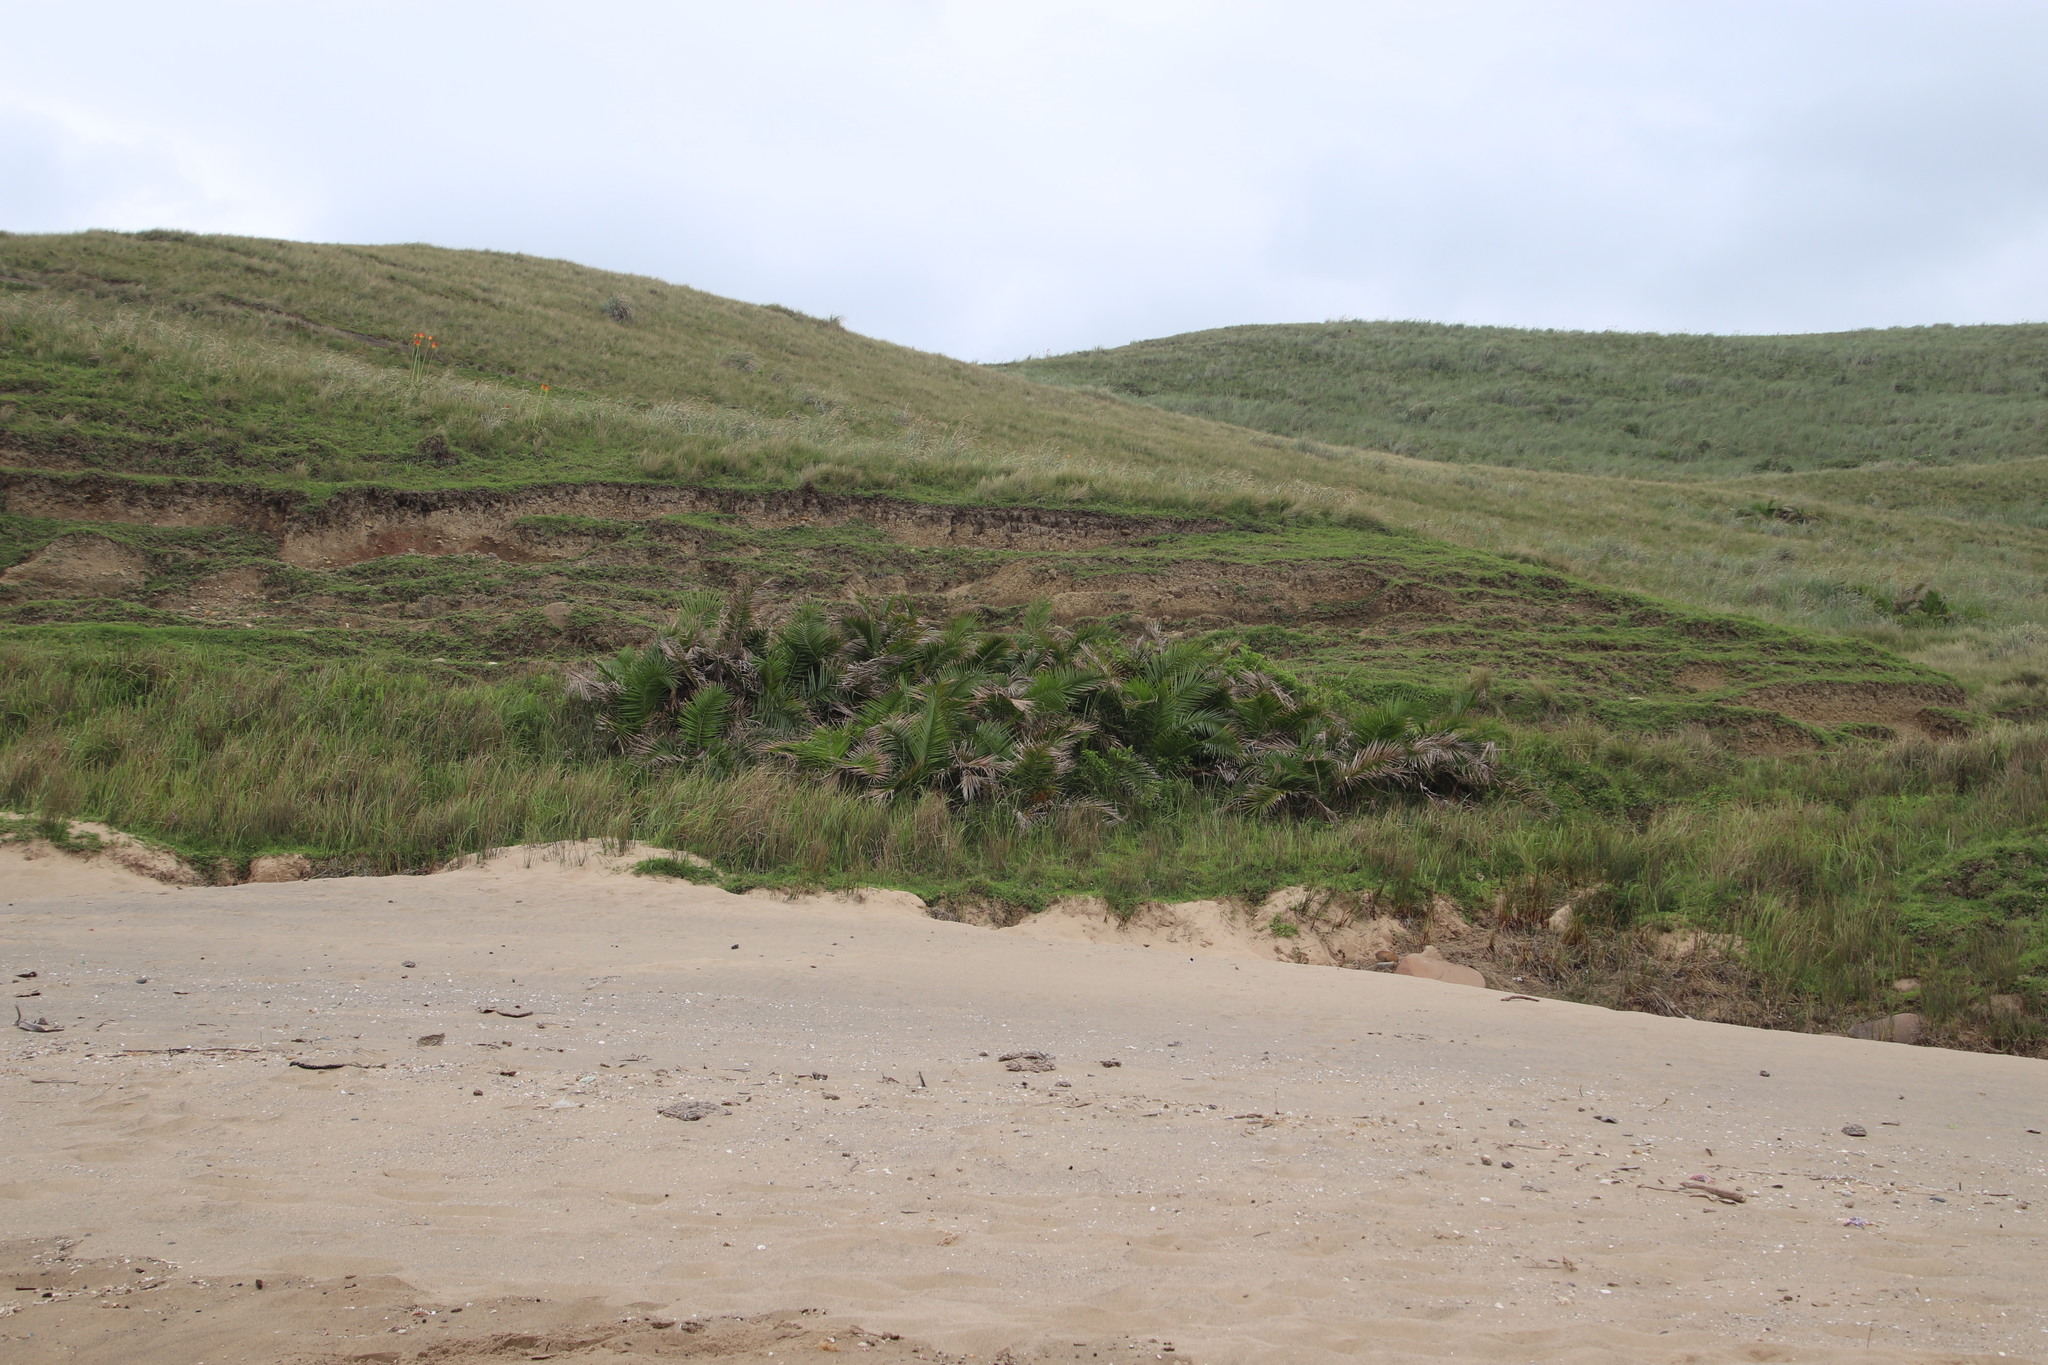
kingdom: Plantae
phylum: Tracheophyta
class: Liliopsida
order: Arecales
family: Arecaceae
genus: Phoenix
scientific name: Phoenix reclinata
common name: Senegal date palm
